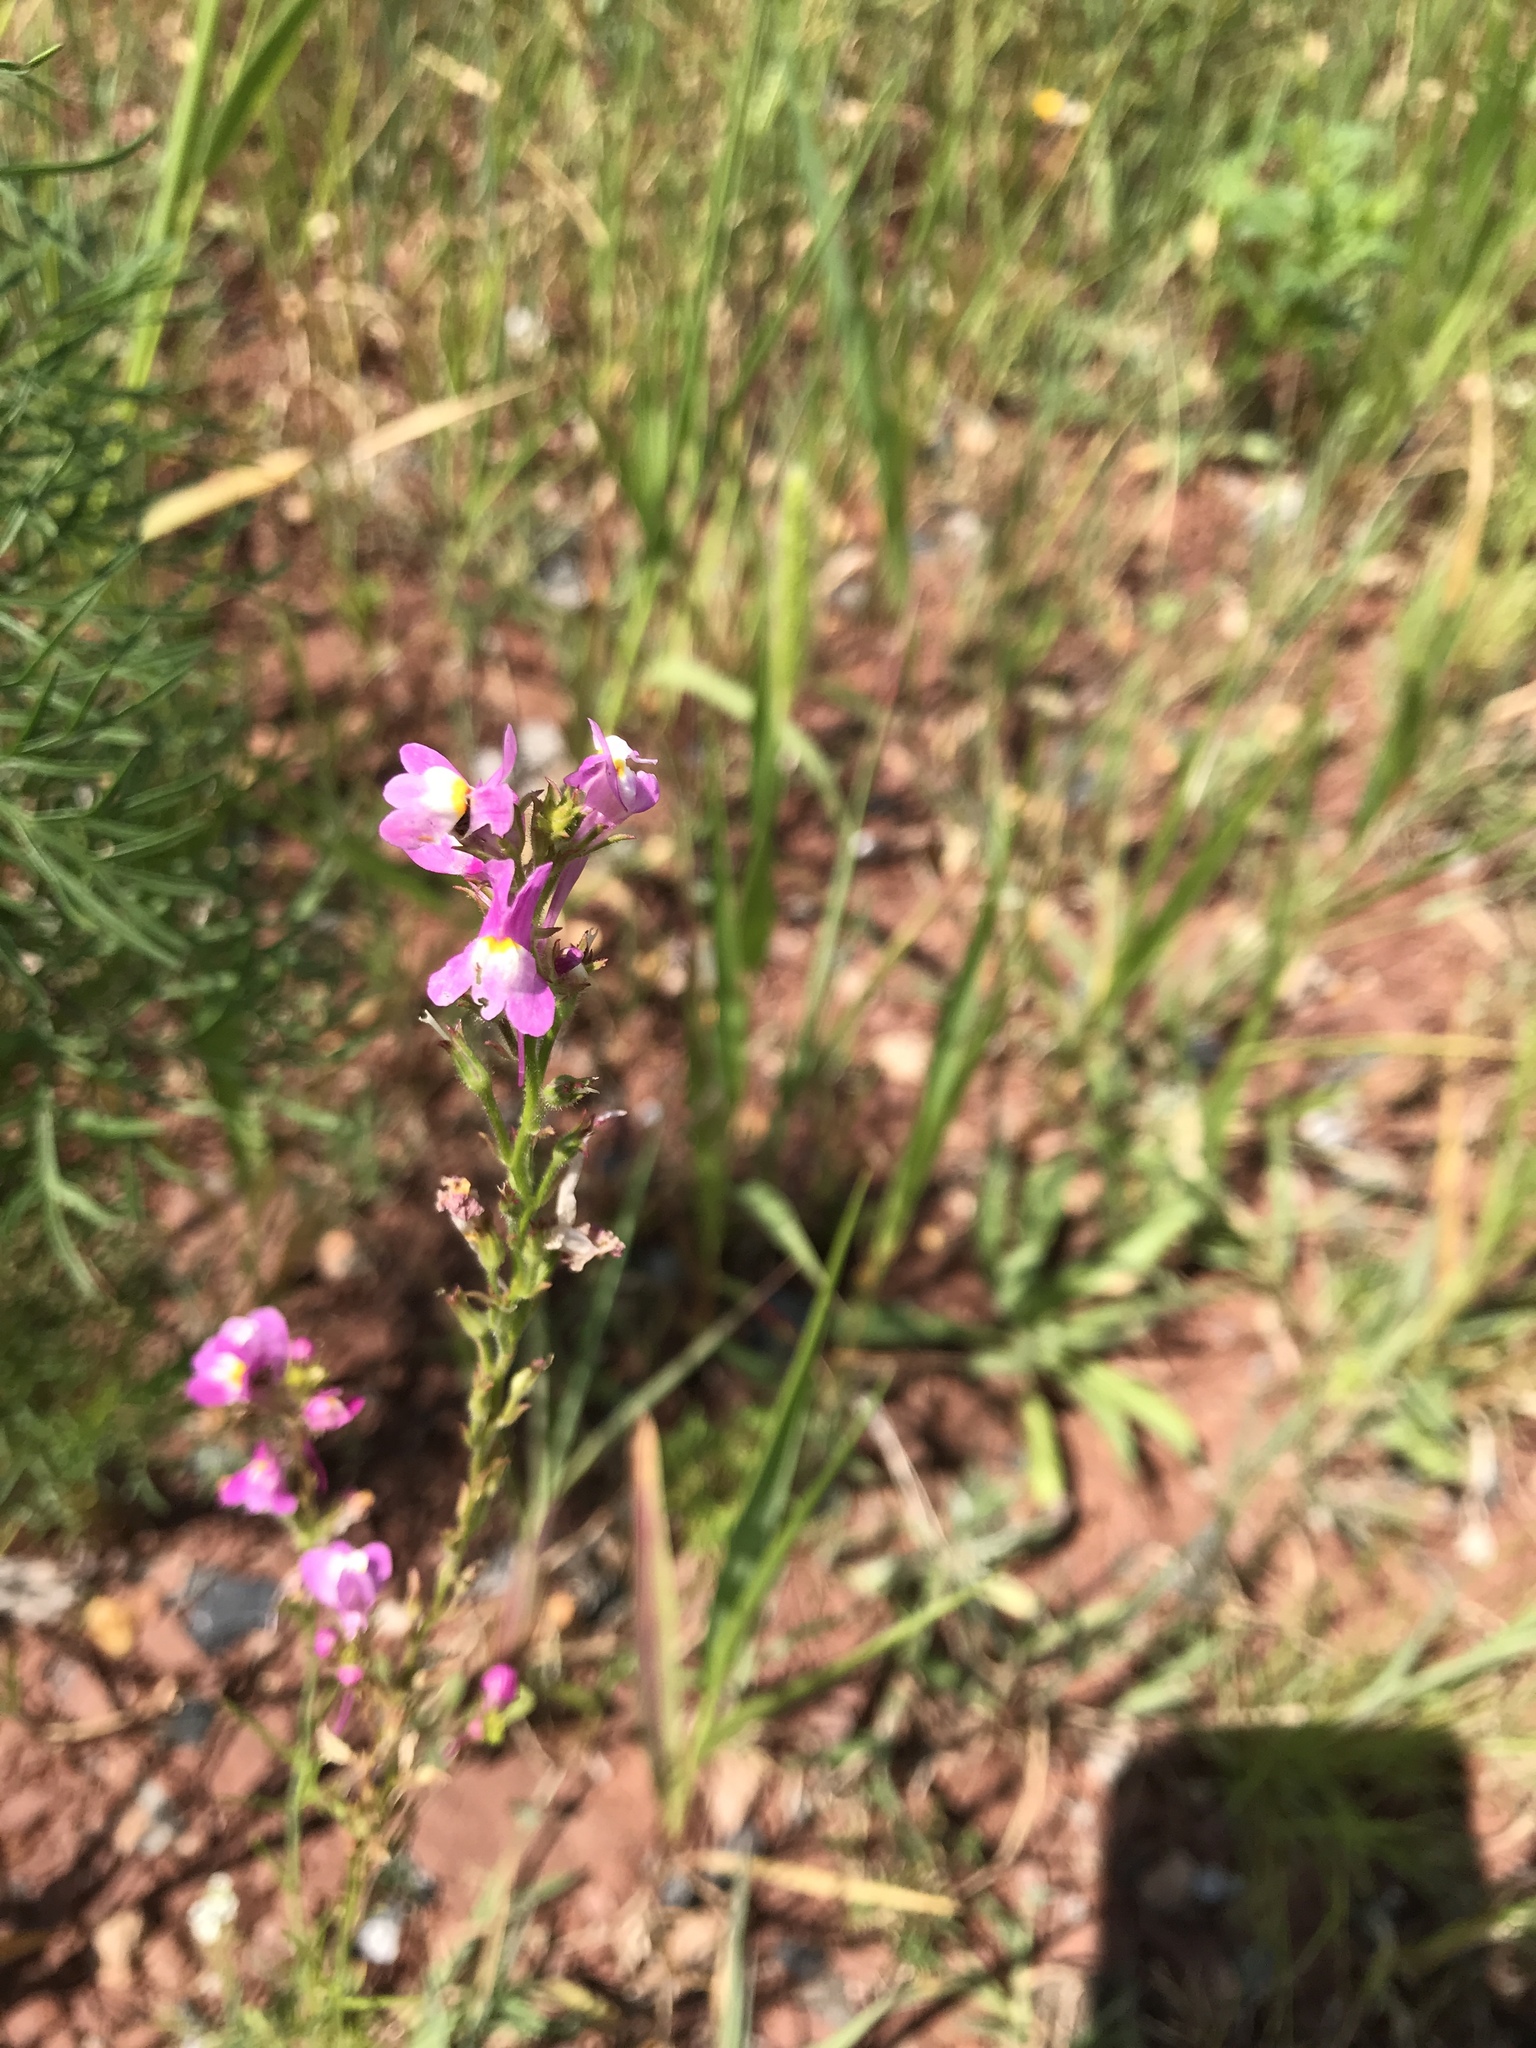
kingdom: Plantae
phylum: Tracheophyta
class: Magnoliopsida
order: Lamiales
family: Plantaginaceae
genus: Linaria
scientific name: Linaria maroccana
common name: Moroccan toadflax
